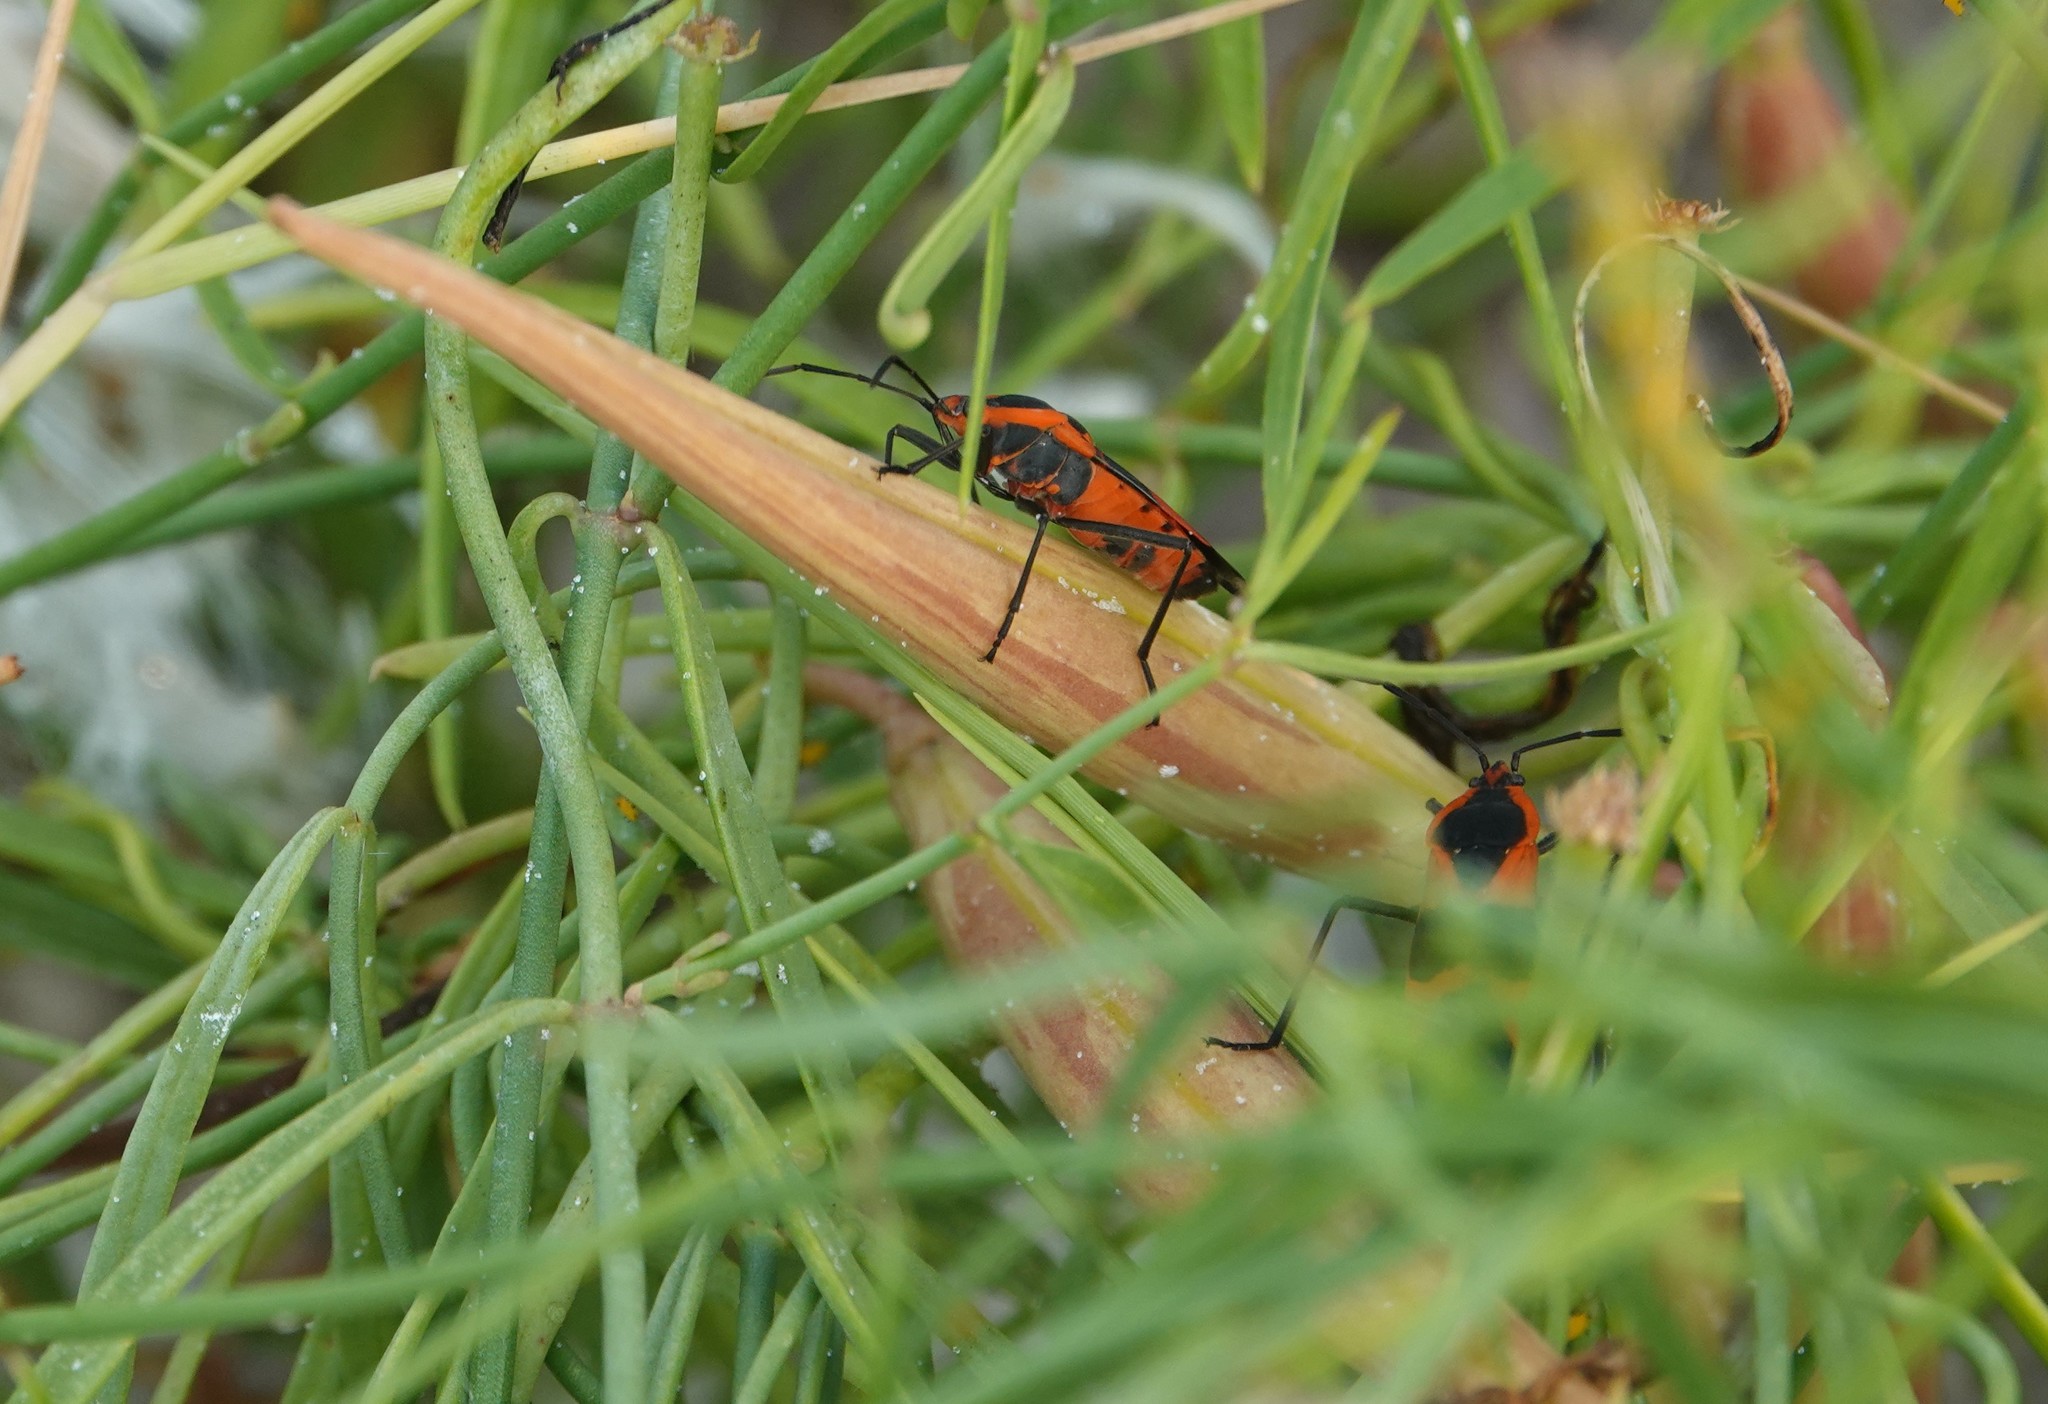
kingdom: Animalia
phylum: Arthropoda
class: Insecta
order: Hemiptera
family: Lygaeidae
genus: Oncopeltus
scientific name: Oncopeltus fasciatus
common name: Large milkweed bug
